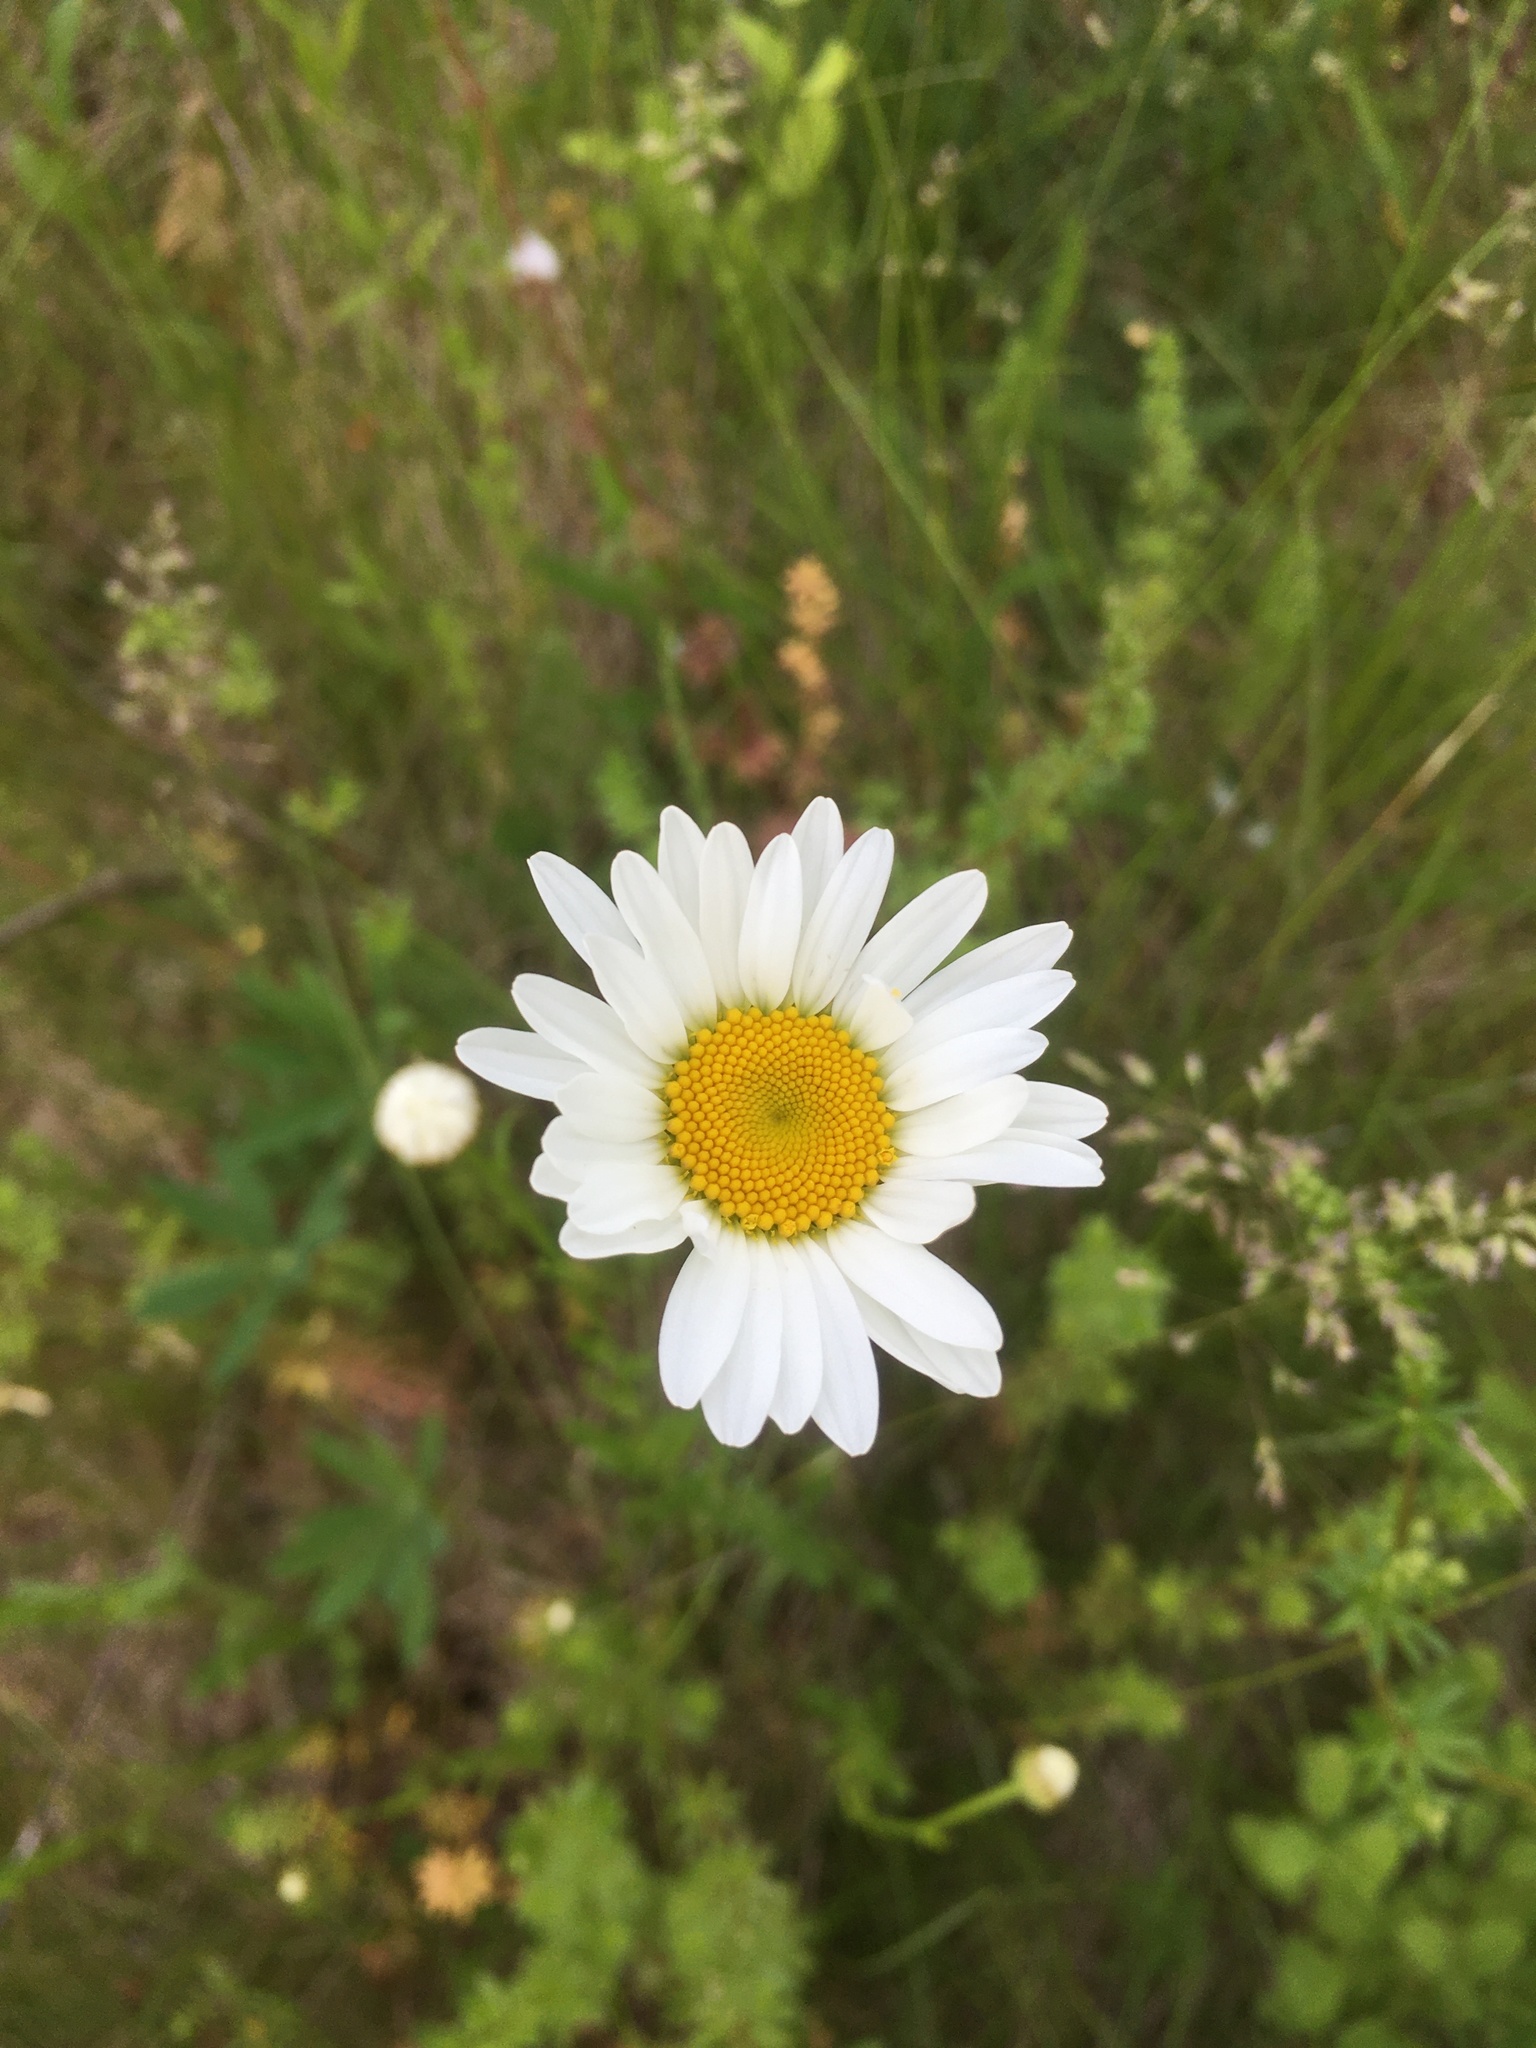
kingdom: Plantae
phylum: Tracheophyta
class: Magnoliopsida
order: Asterales
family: Asteraceae
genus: Leucanthemum
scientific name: Leucanthemum vulgare
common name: Oxeye daisy
